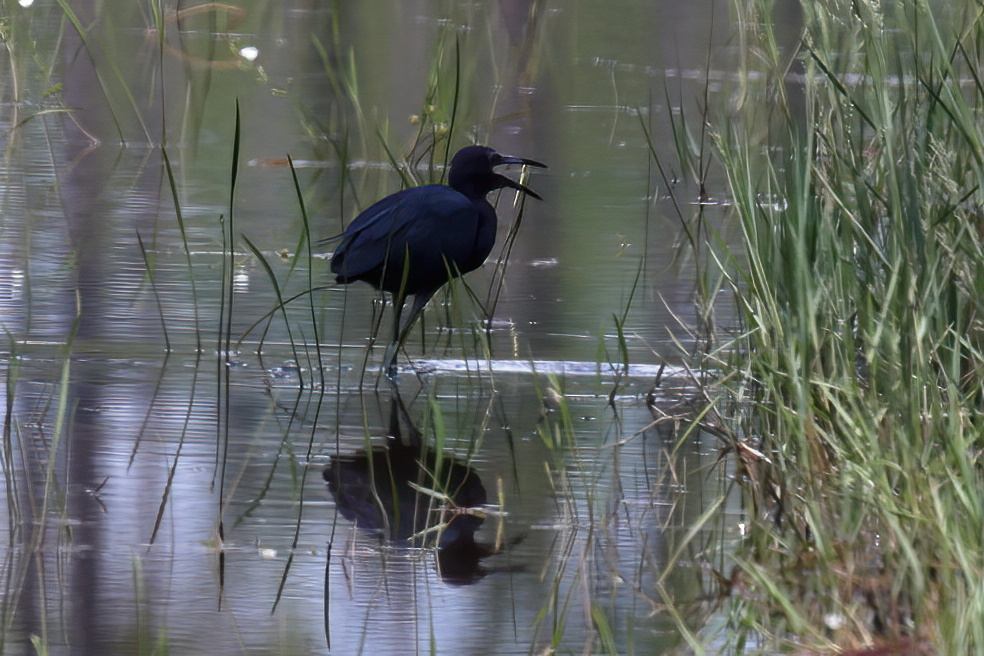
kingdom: Animalia
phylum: Chordata
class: Aves
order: Pelecaniformes
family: Ardeidae
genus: Egretta
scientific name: Egretta caerulea
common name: Little blue heron
